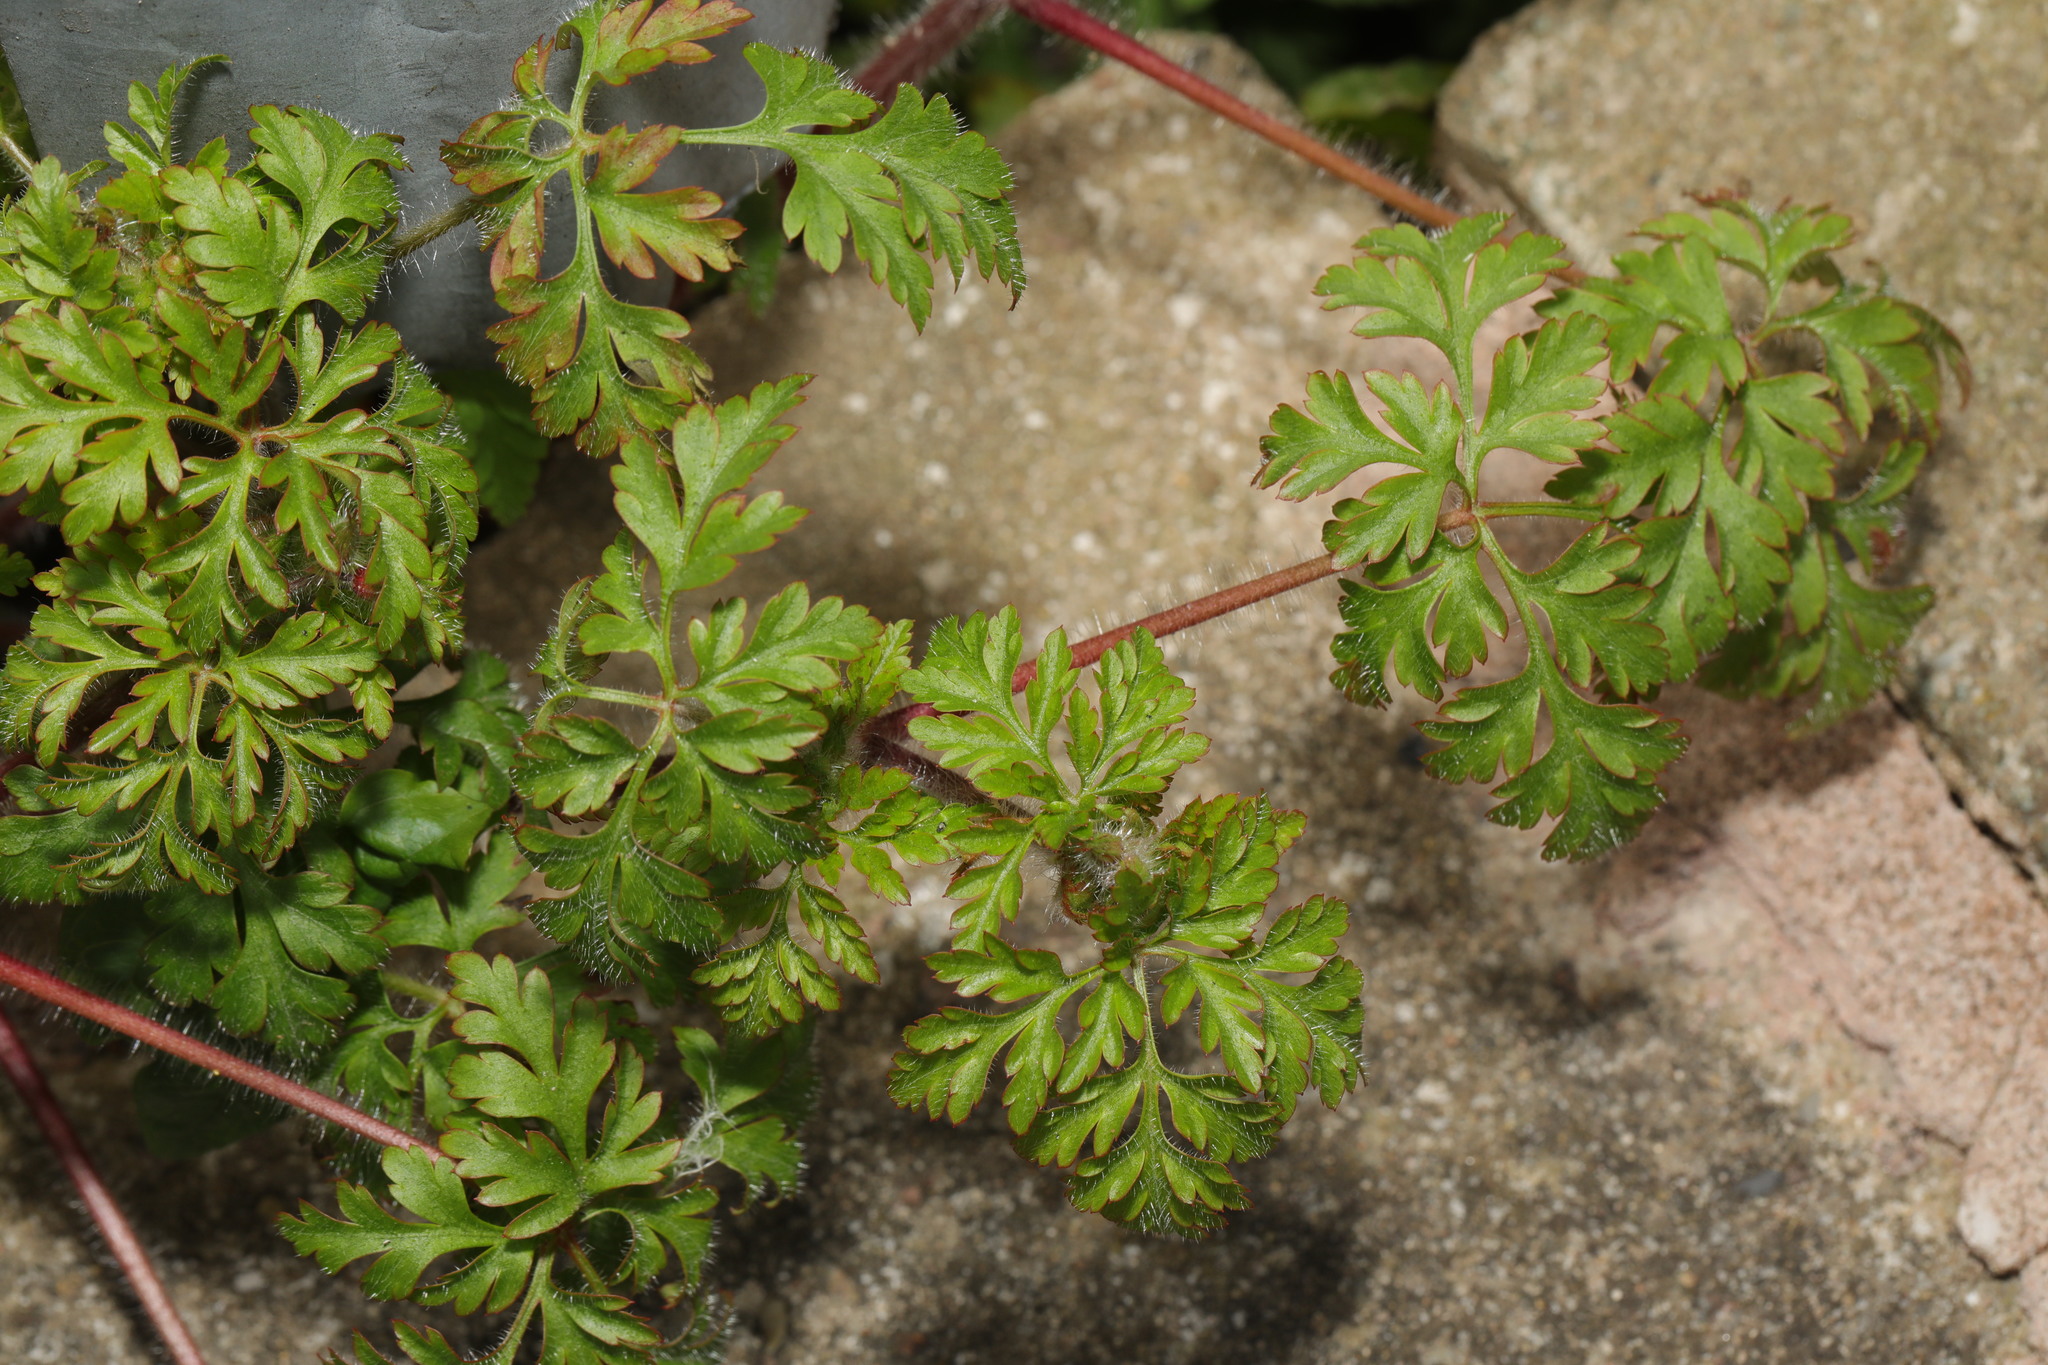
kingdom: Plantae
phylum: Tracheophyta
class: Magnoliopsida
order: Geraniales
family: Geraniaceae
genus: Geranium
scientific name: Geranium robertianum
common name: Herb-robert
